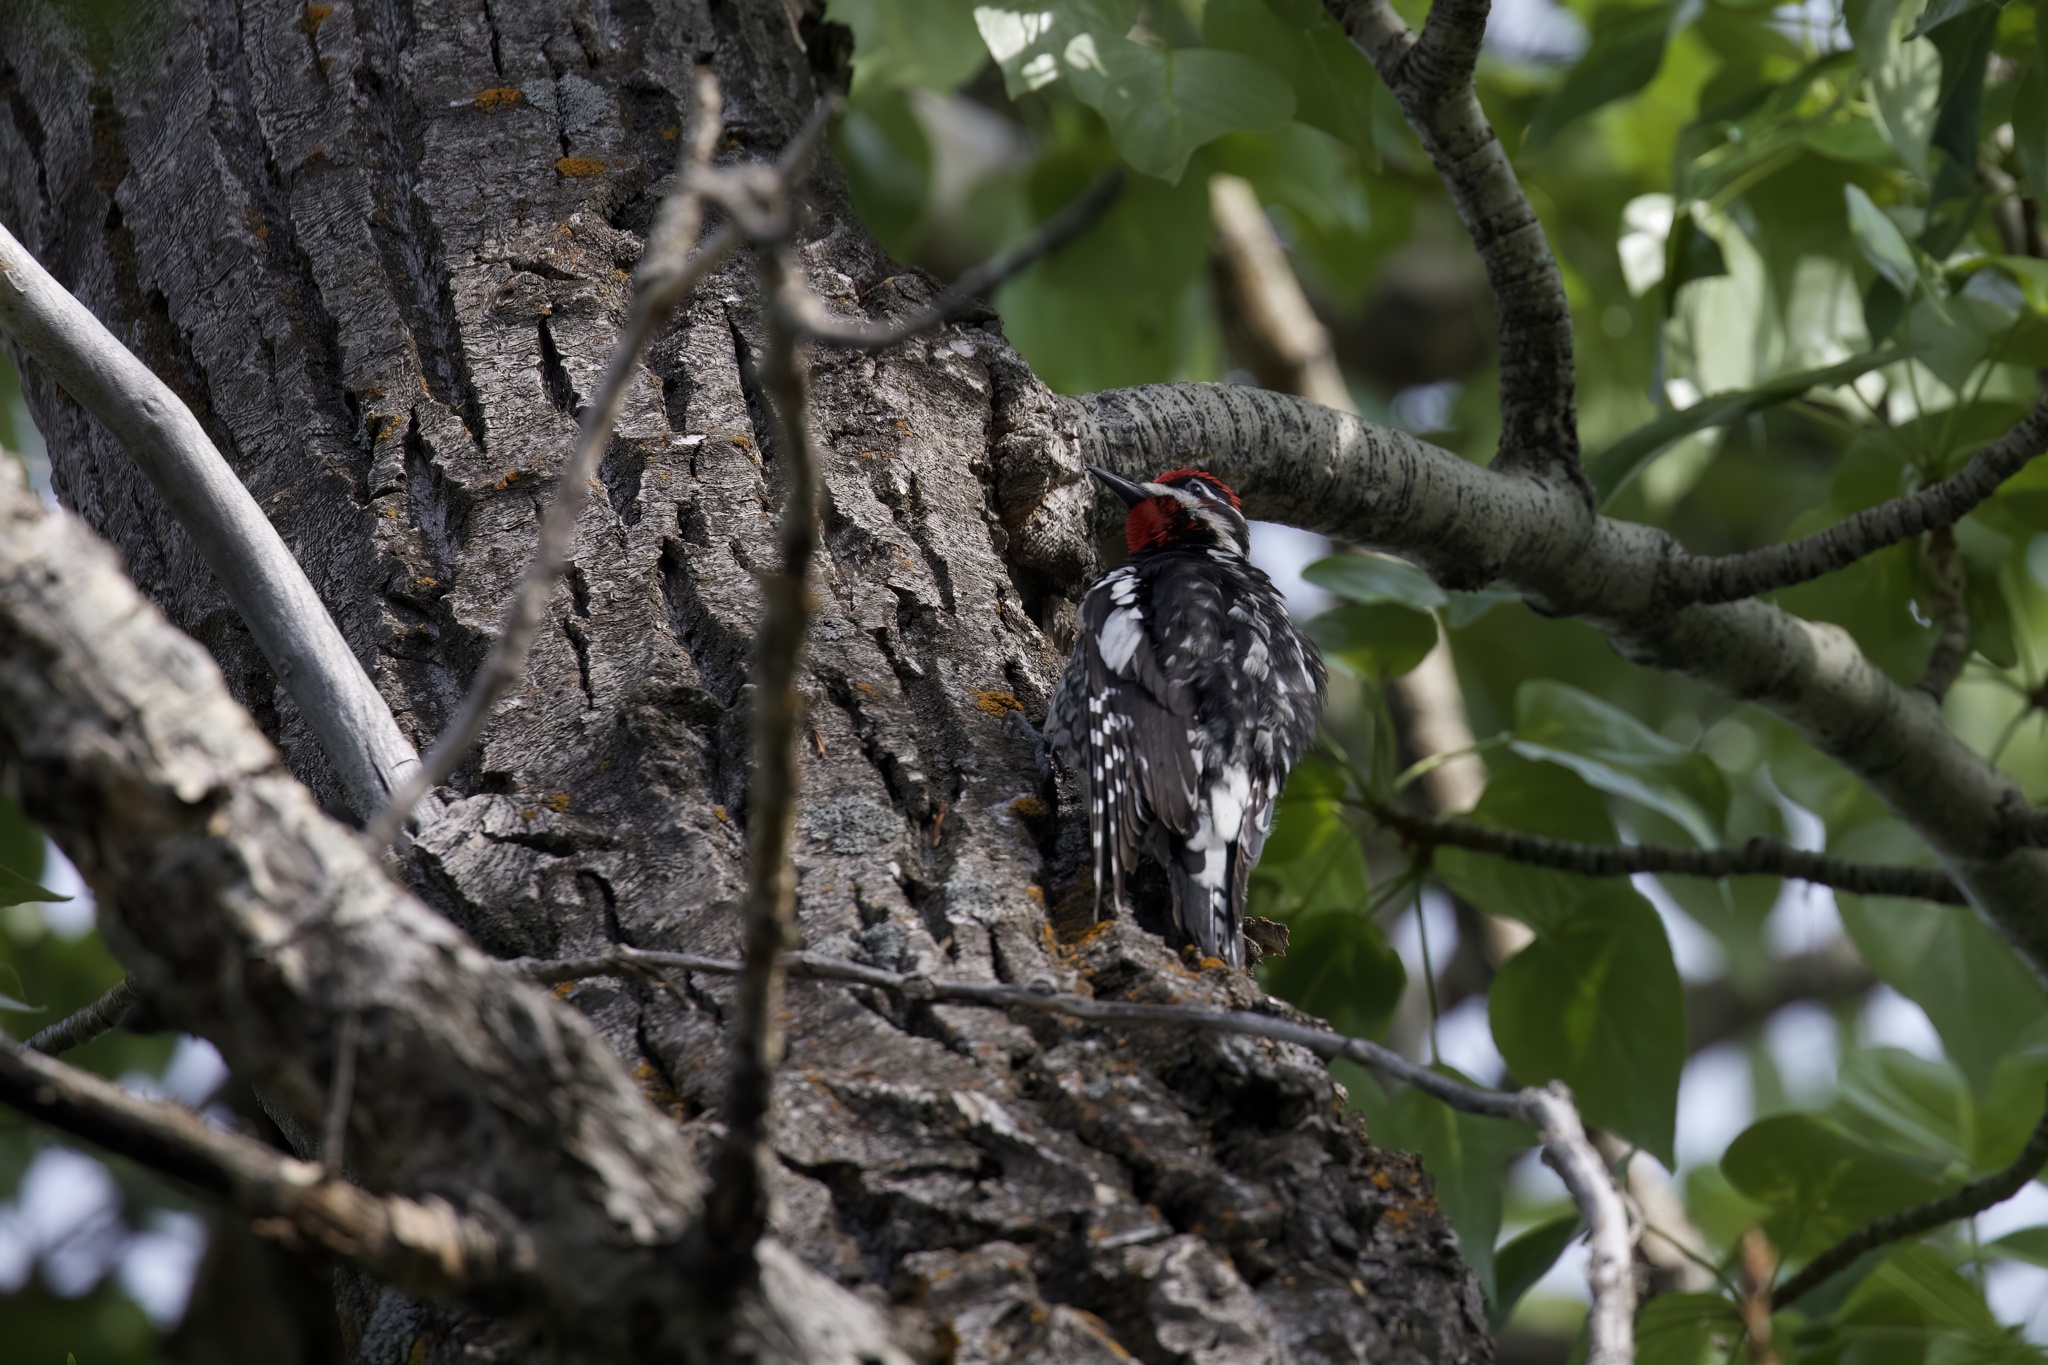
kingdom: Animalia
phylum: Chordata
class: Aves
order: Piciformes
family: Picidae
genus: Sphyrapicus
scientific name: Sphyrapicus nuchalis
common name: Red-naped sapsucker
